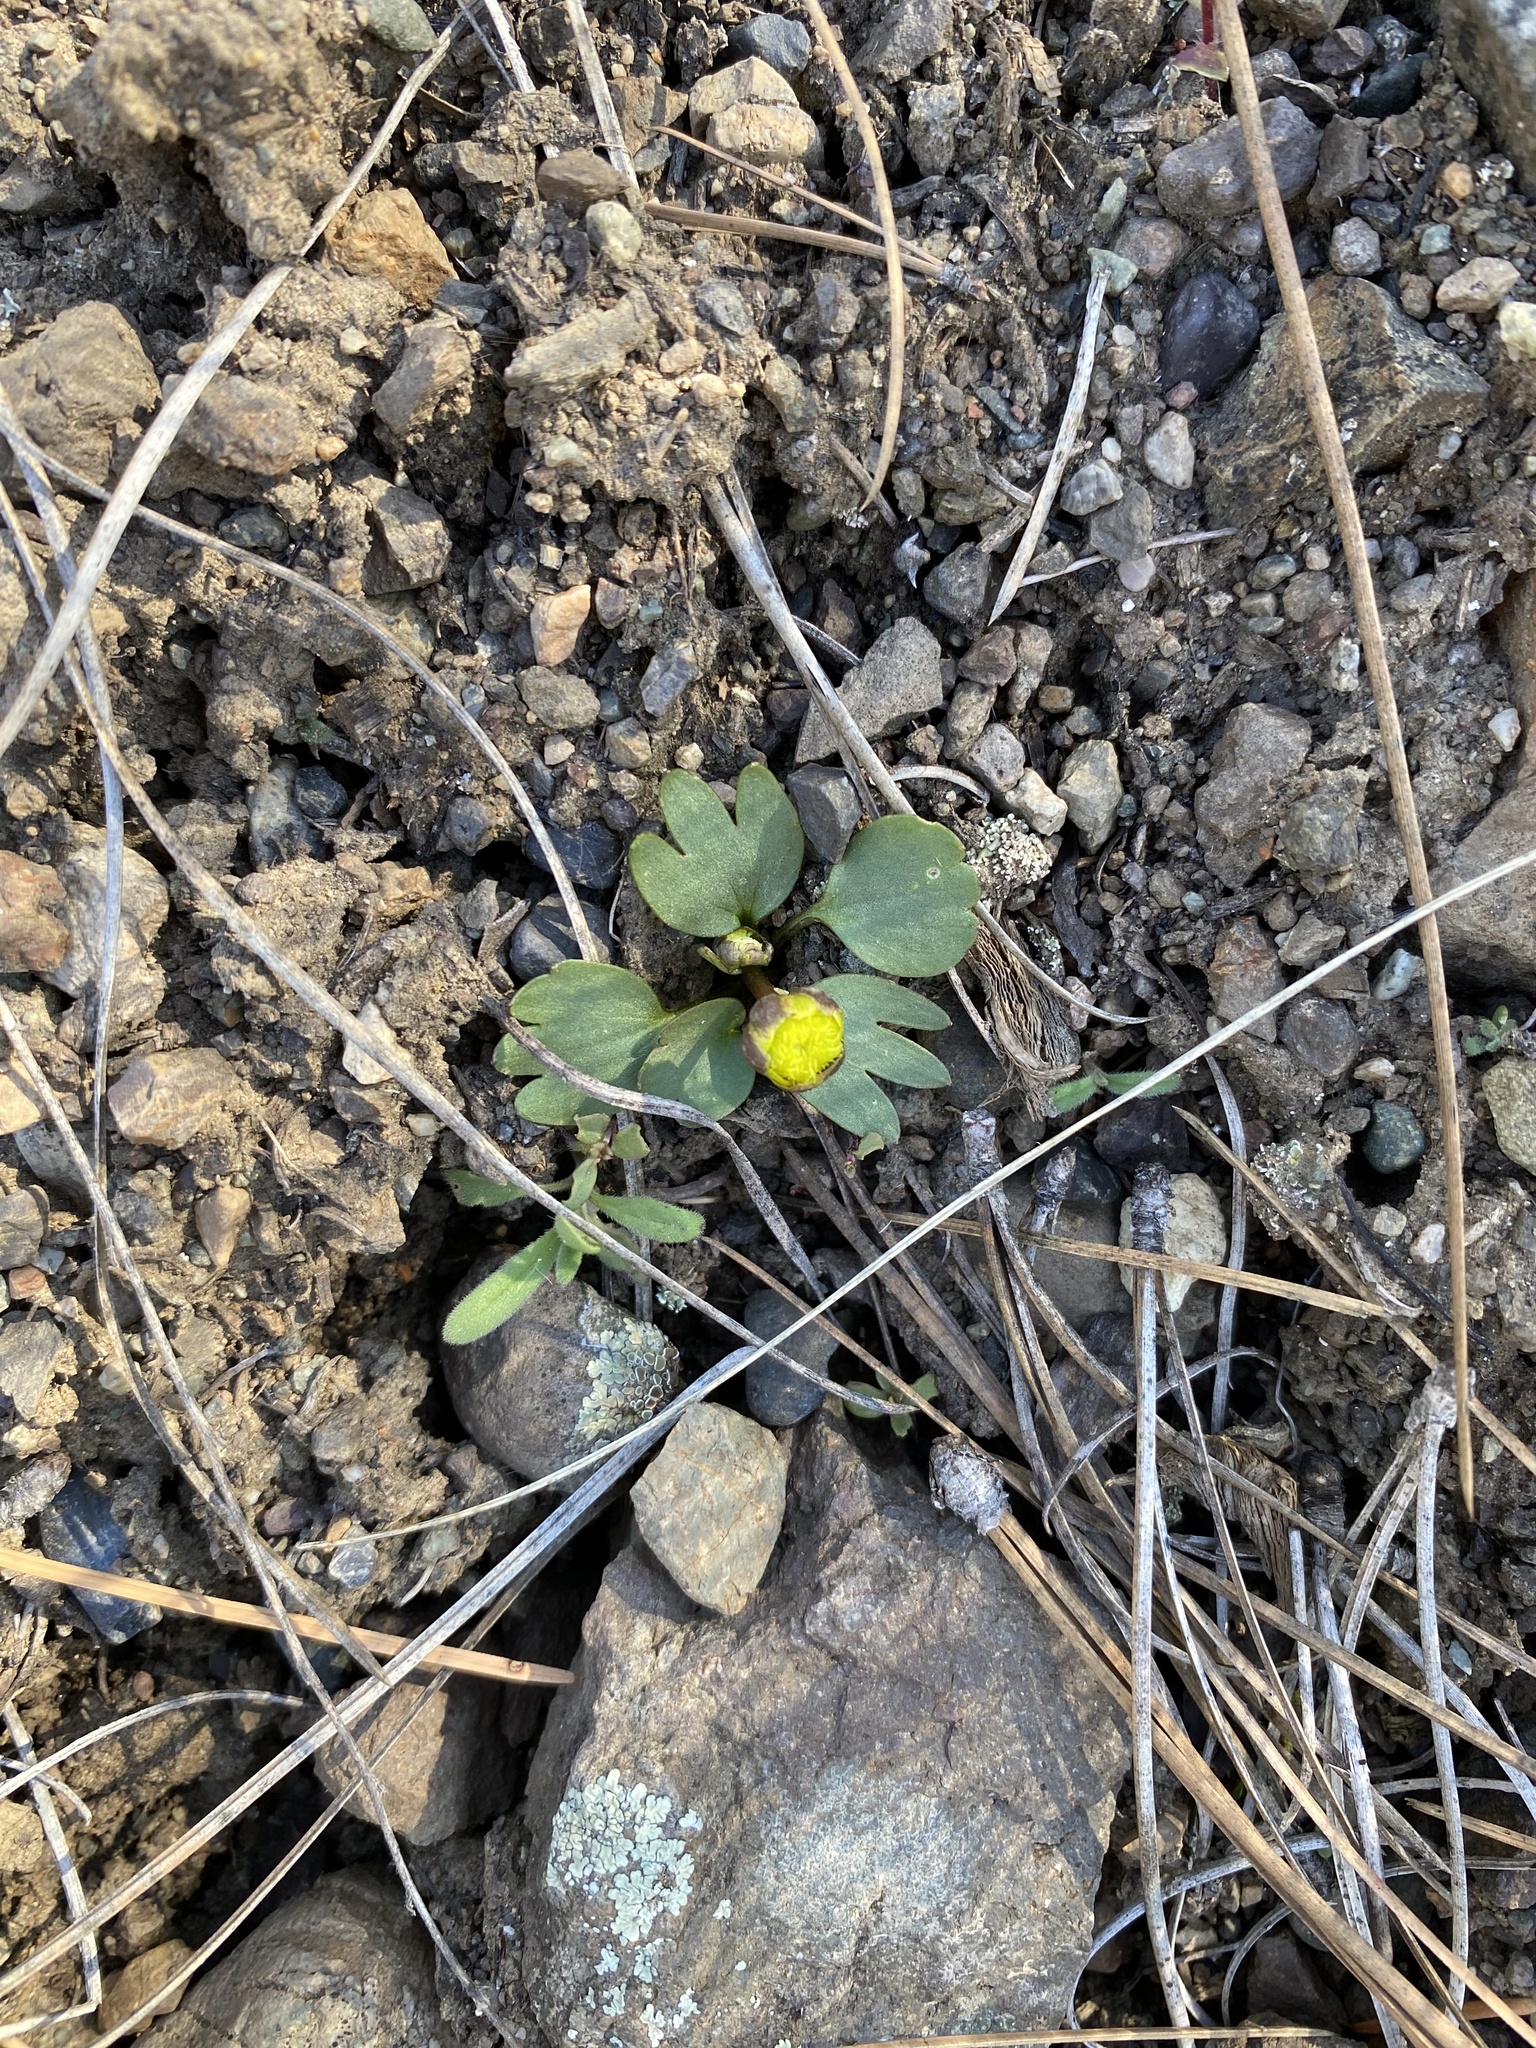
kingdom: Plantae
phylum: Tracheophyta
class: Magnoliopsida
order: Ranunculales
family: Ranunculaceae
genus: Ranunculus
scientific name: Ranunculus glaberrimus
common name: Sagebrush buttercup
